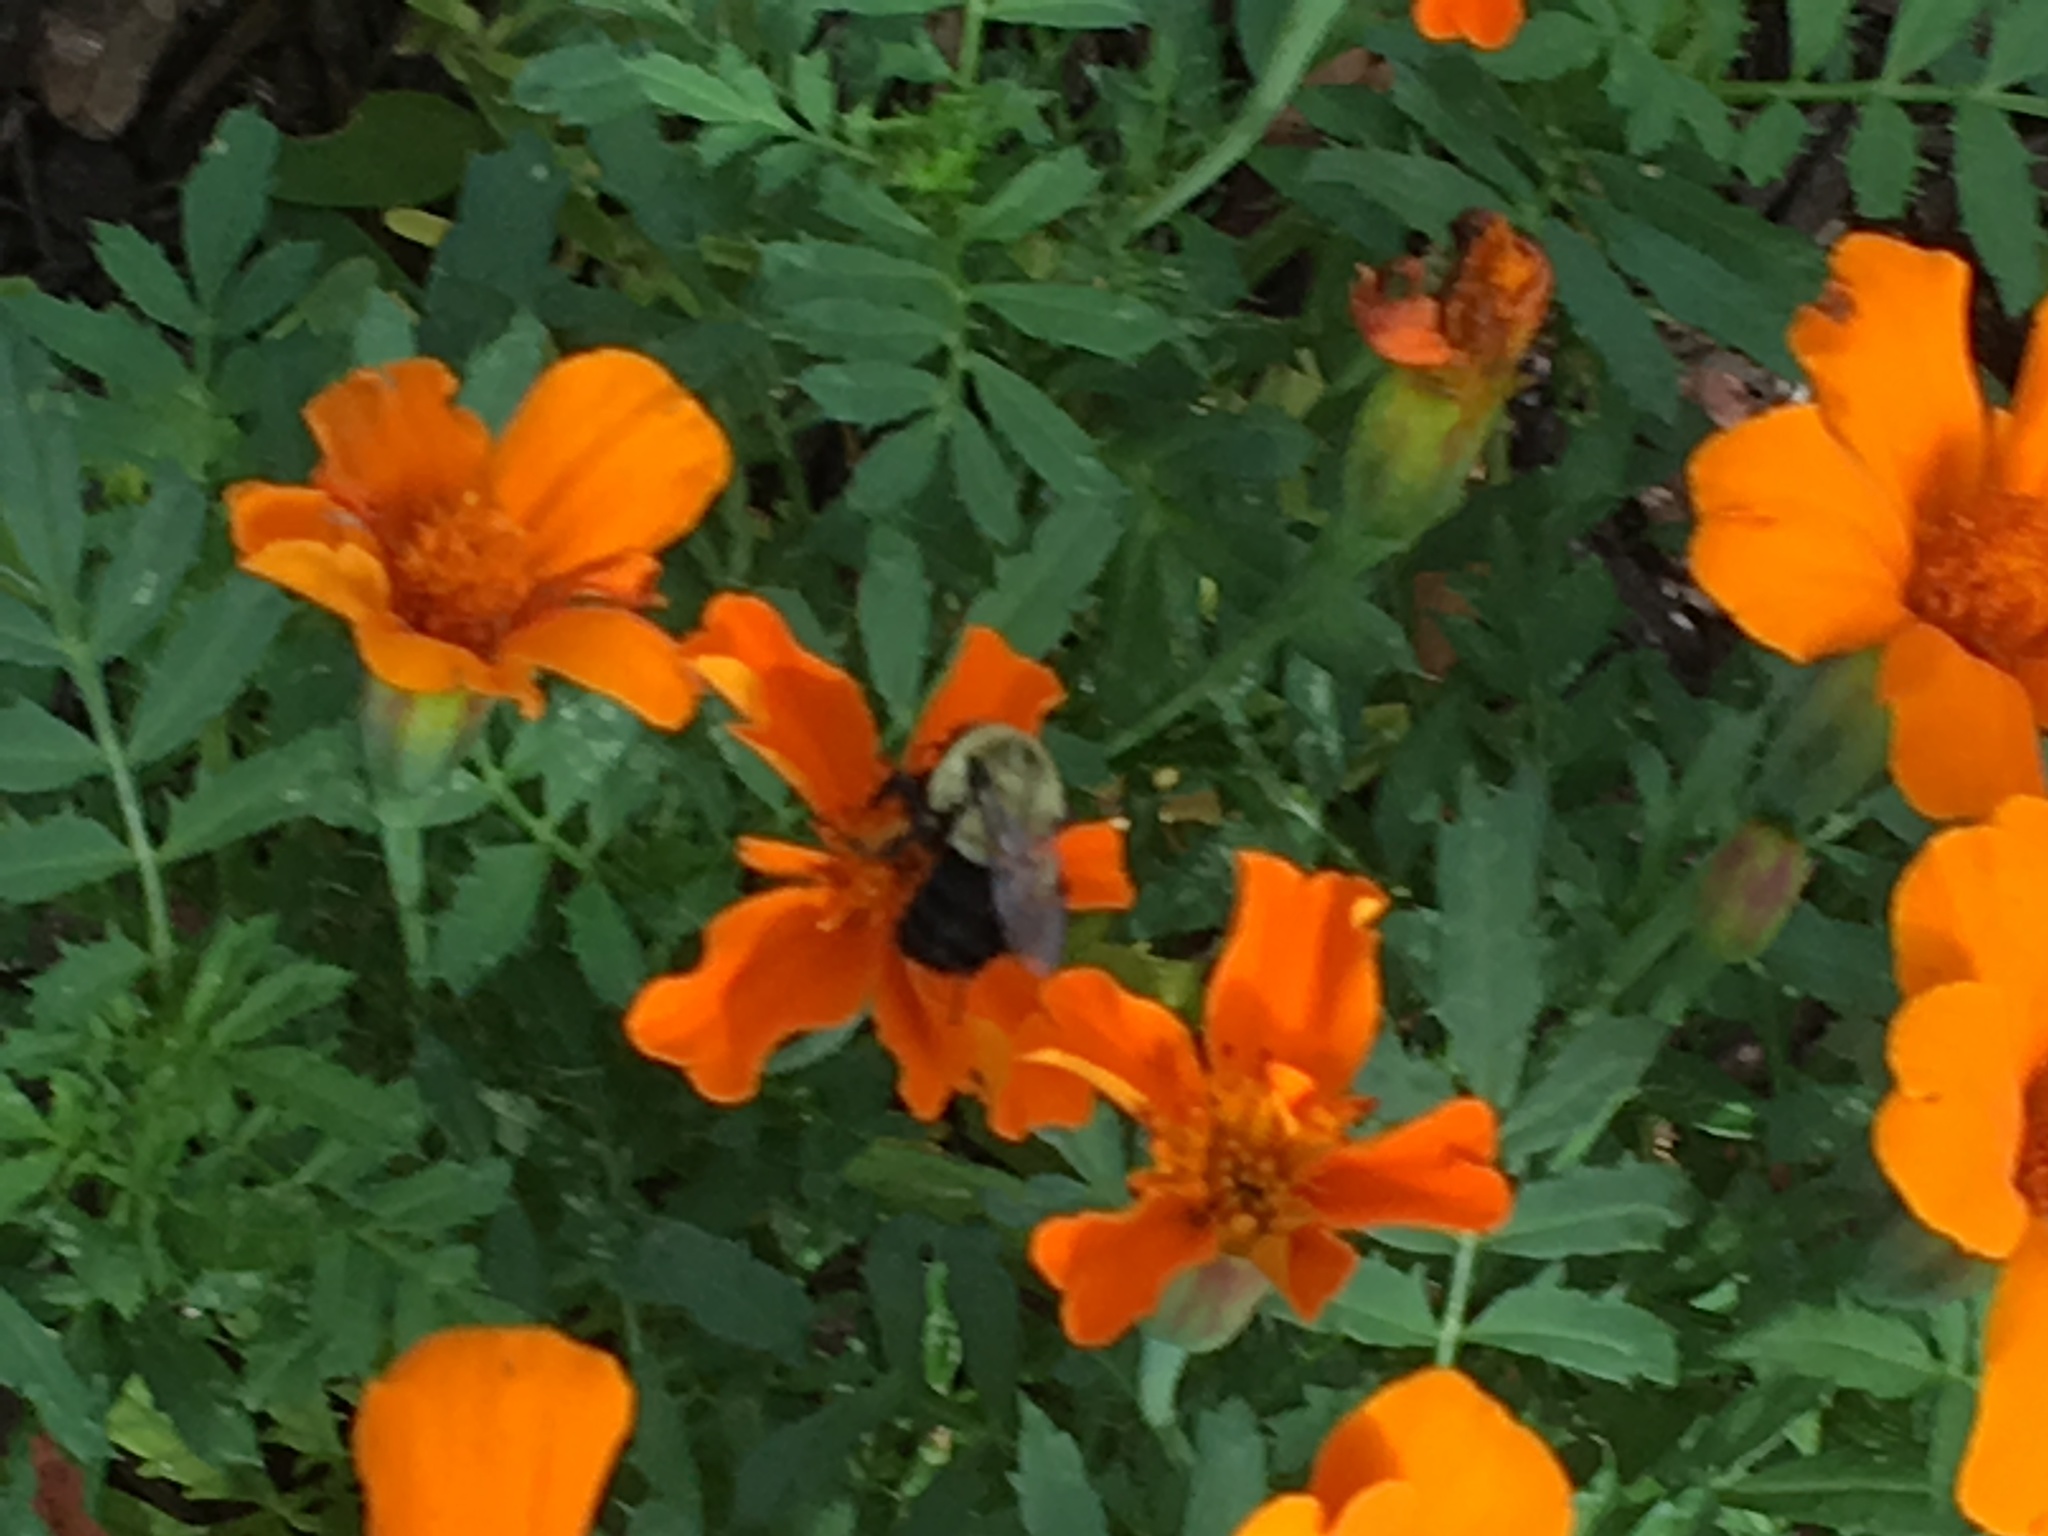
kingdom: Animalia
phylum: Arthropoda
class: Insecta
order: Hymenoptera
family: Apidae
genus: Bombus
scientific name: Bombus impatiens
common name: Common eastern bumble bee
